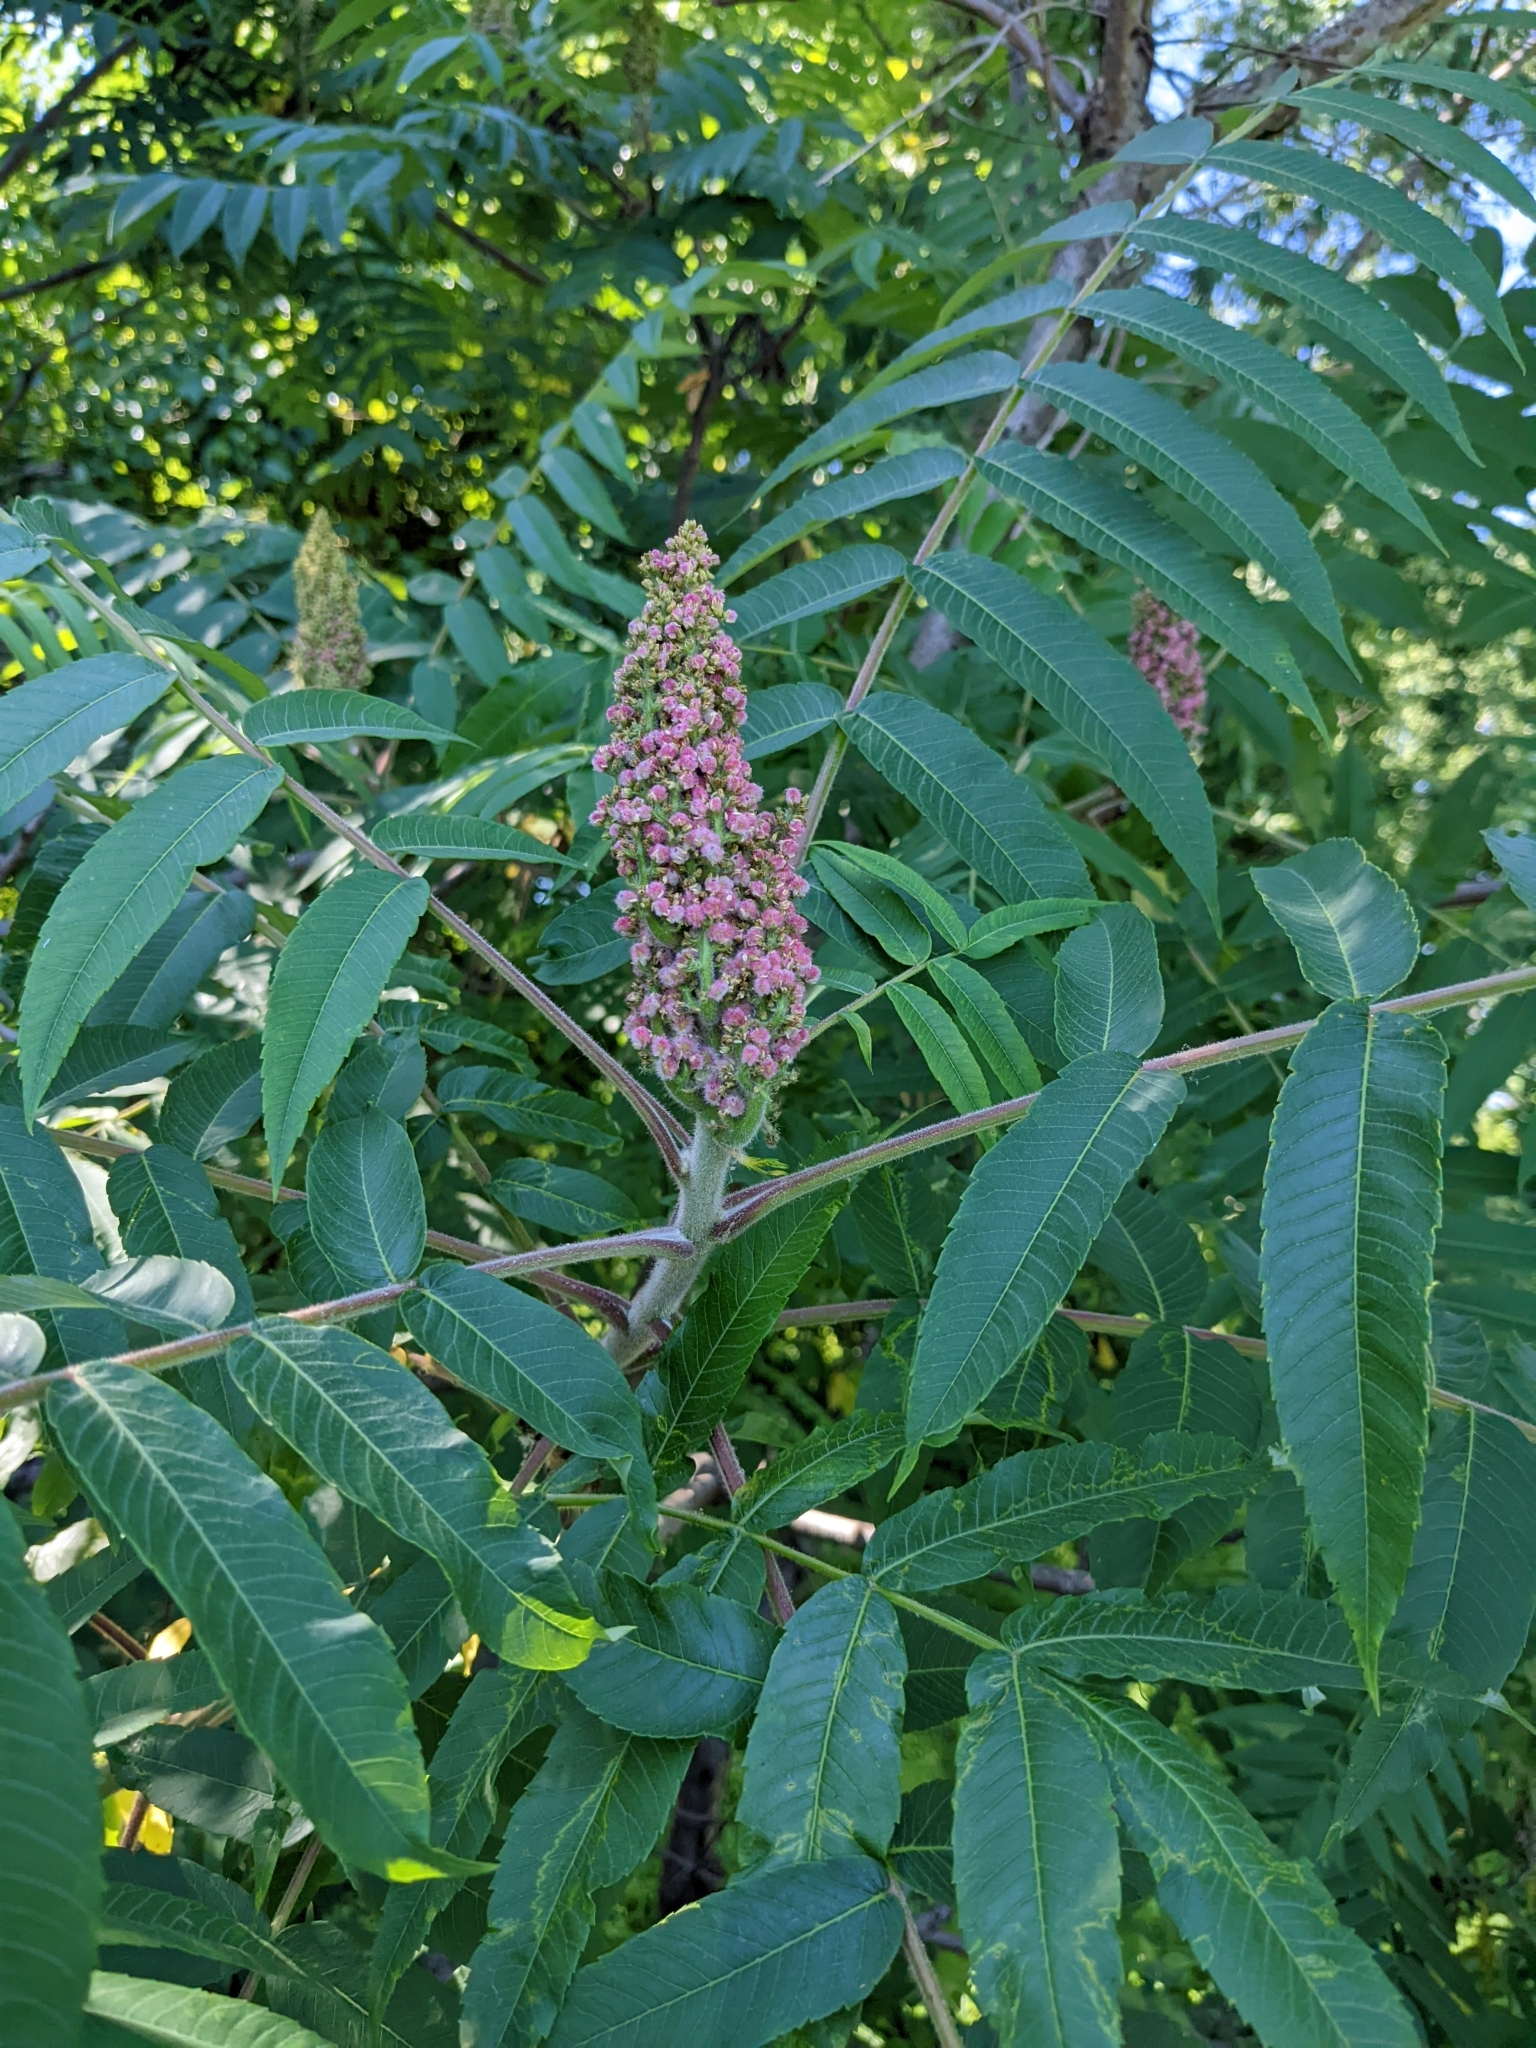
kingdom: Plantae
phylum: Tracheophyta
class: Magnoliopsida
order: Sapindales
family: Anacardiaceae
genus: Rhus
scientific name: Rhus typhina
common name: Staghorn sumac
